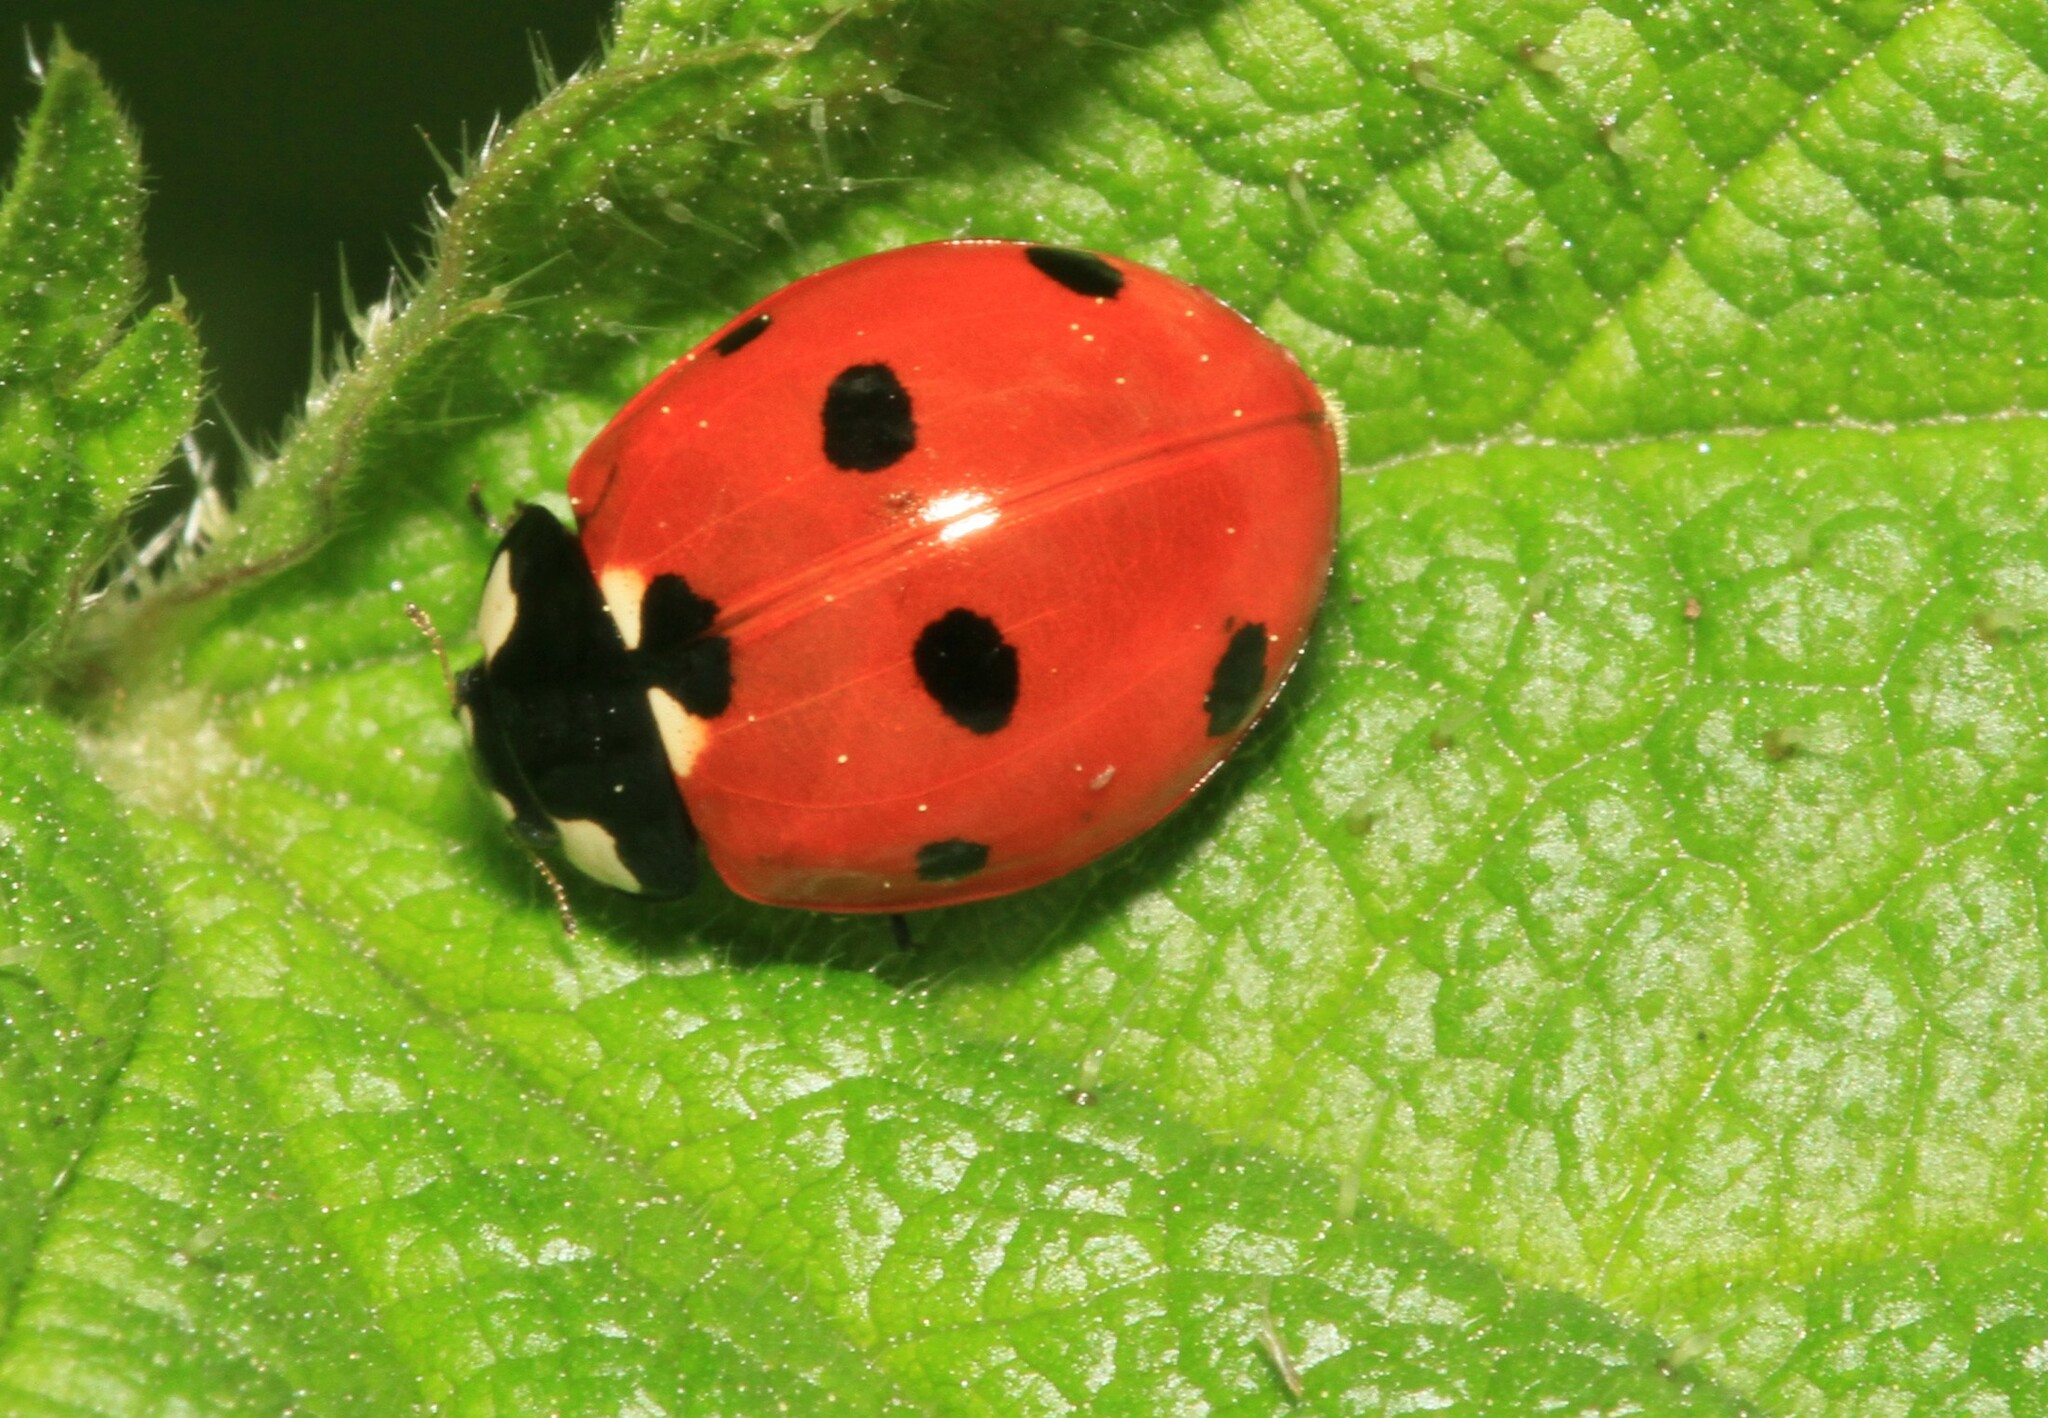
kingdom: Animalia
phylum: Arthropoda
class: Insecta
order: Coleoptera
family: Coccinellidae
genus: Coccinella
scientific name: Coccinella septempunctata
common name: Sevenspotted lady beetle
